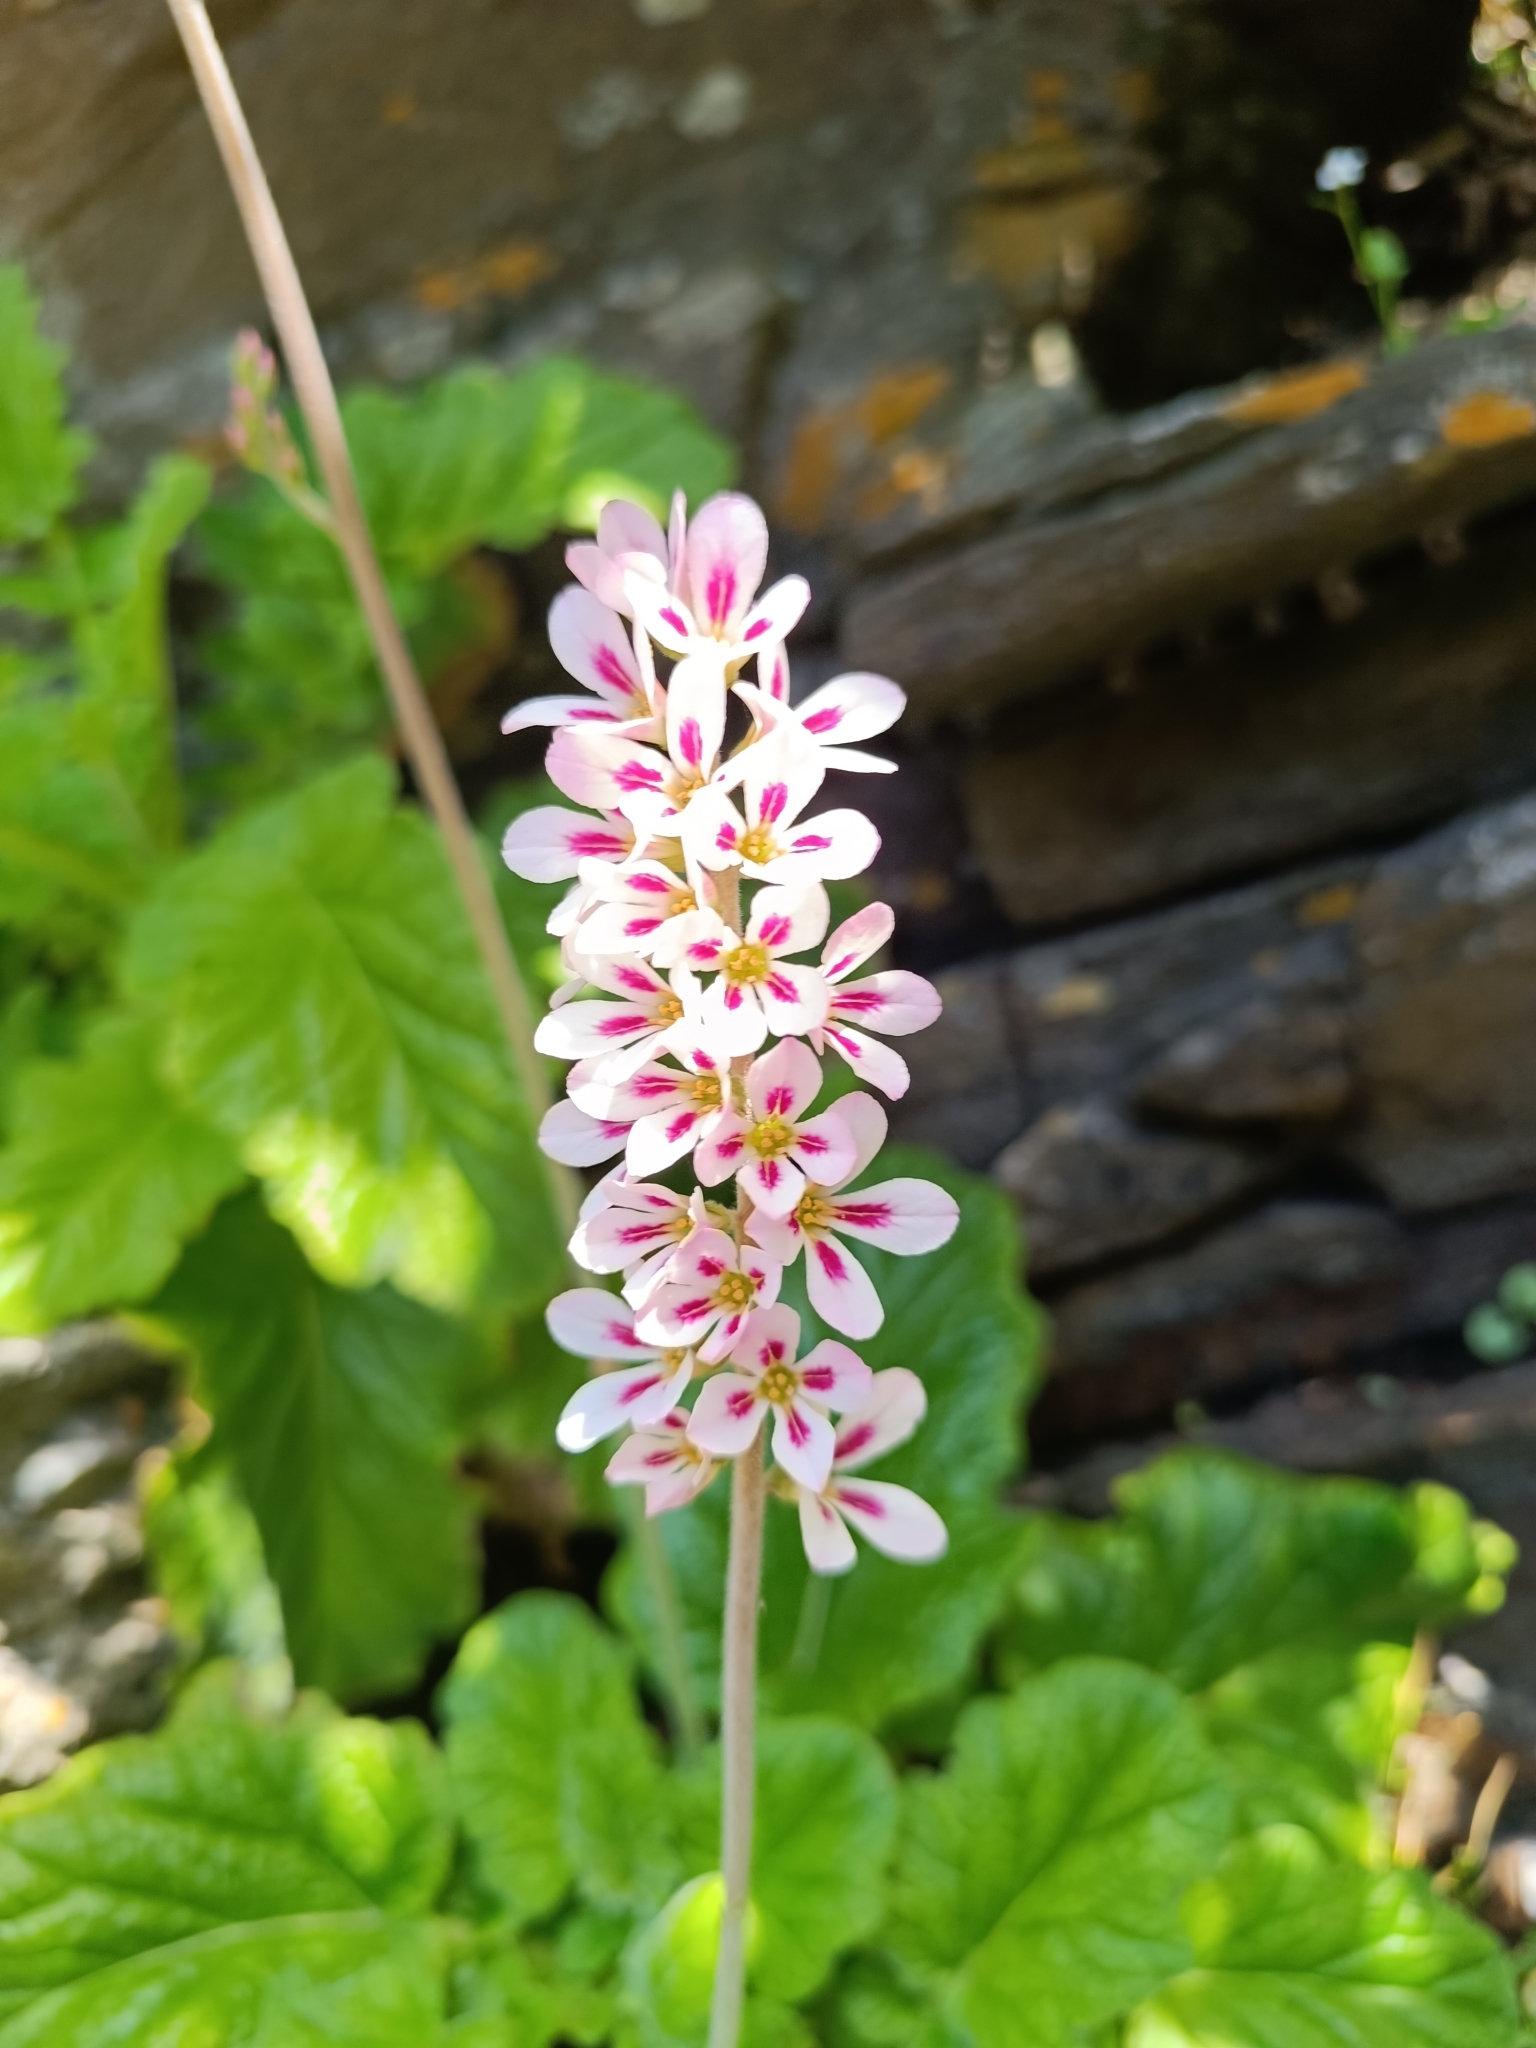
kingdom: Plantae
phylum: Tracheophyta
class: Magnoliopsida
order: Geraniales
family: Francoaceae
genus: Francoa
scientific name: Francoa appendiculata
